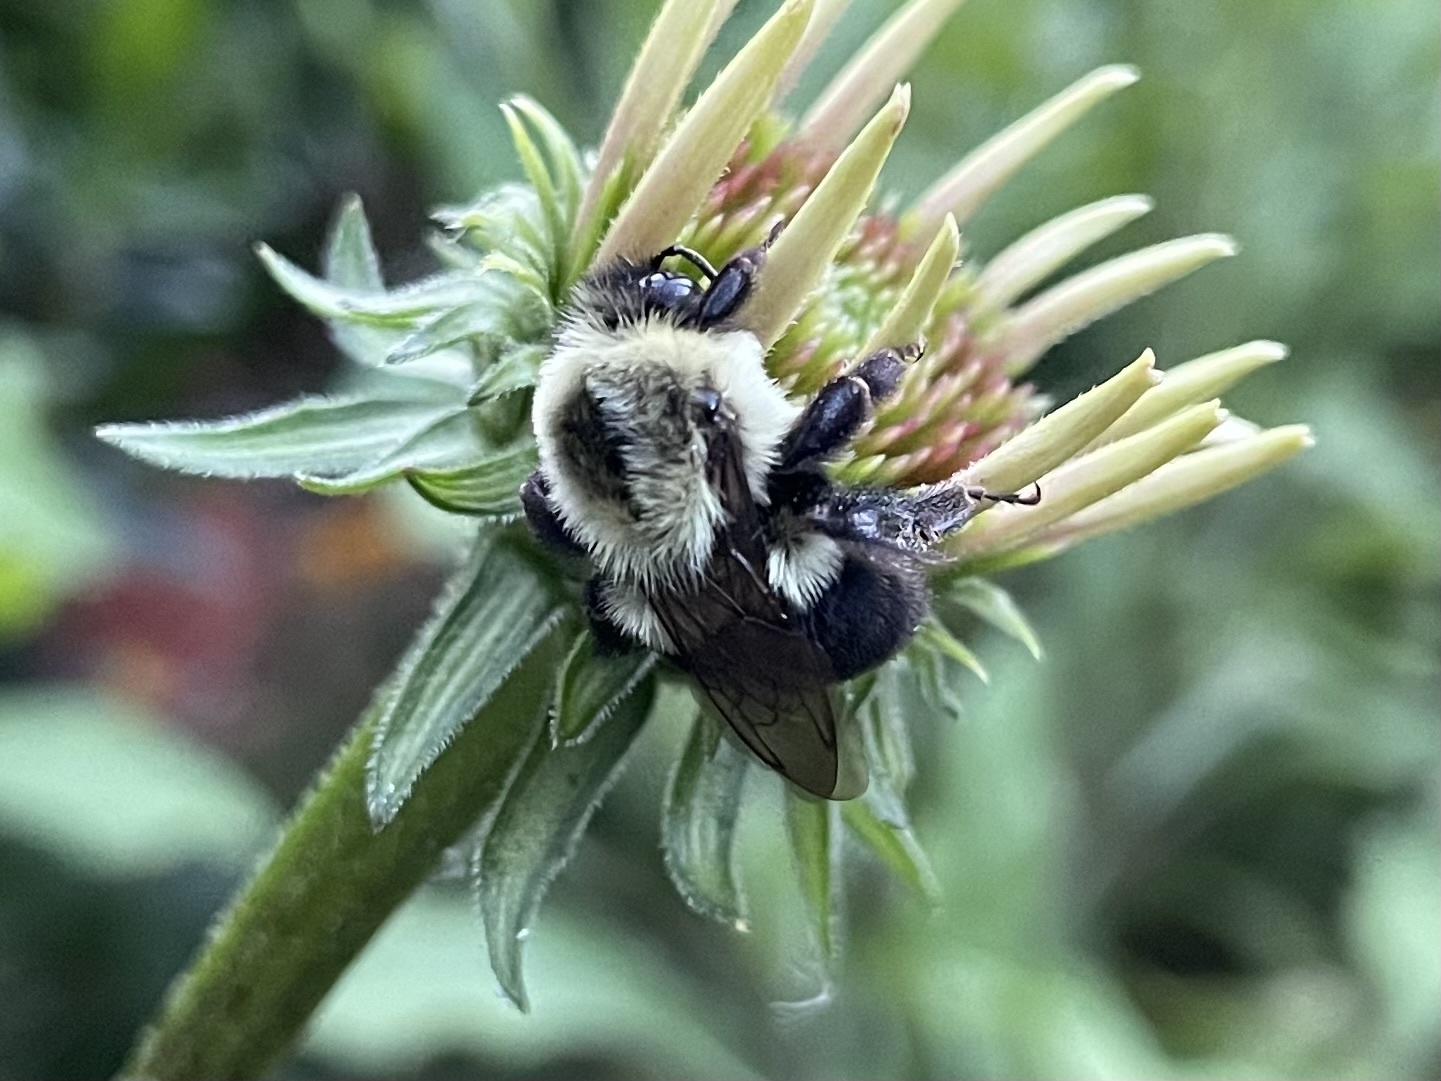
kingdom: Animalia
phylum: Arthropoda
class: Insecta
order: Hymenoptera
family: Apidae
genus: Bombus
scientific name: Bombus impatiens
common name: Common eastern bumble bee
